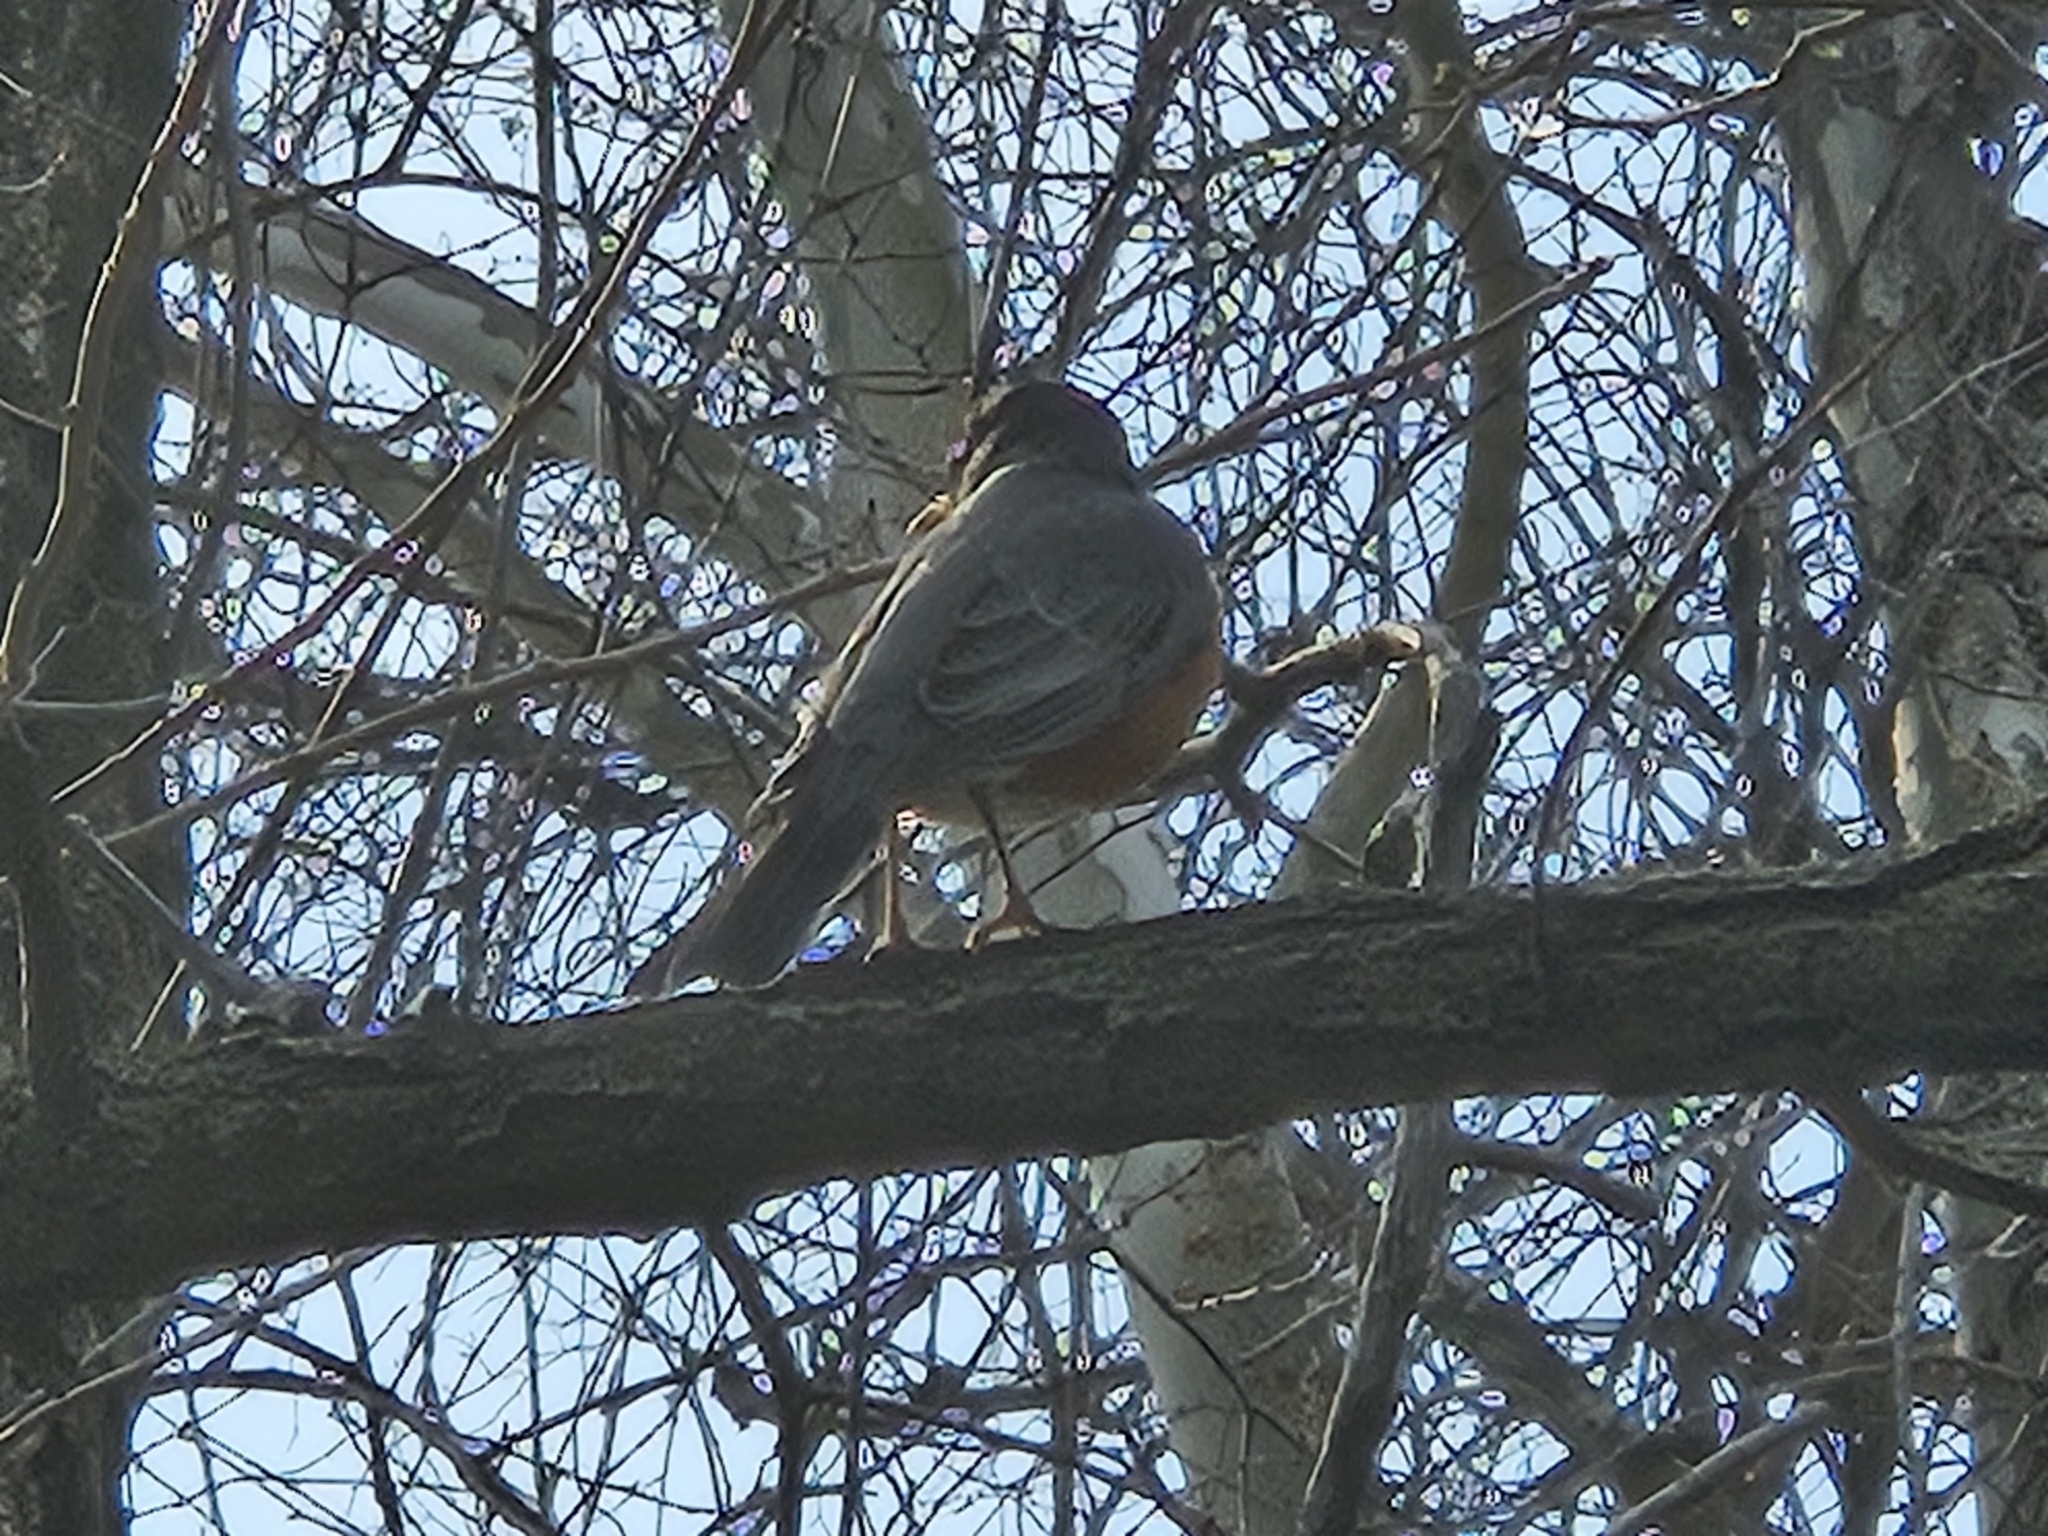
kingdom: Animalia
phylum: Chordata
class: Aves
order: Passeriformes
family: Turdidae
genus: Turdus
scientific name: Turdus migratorius
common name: American robin
